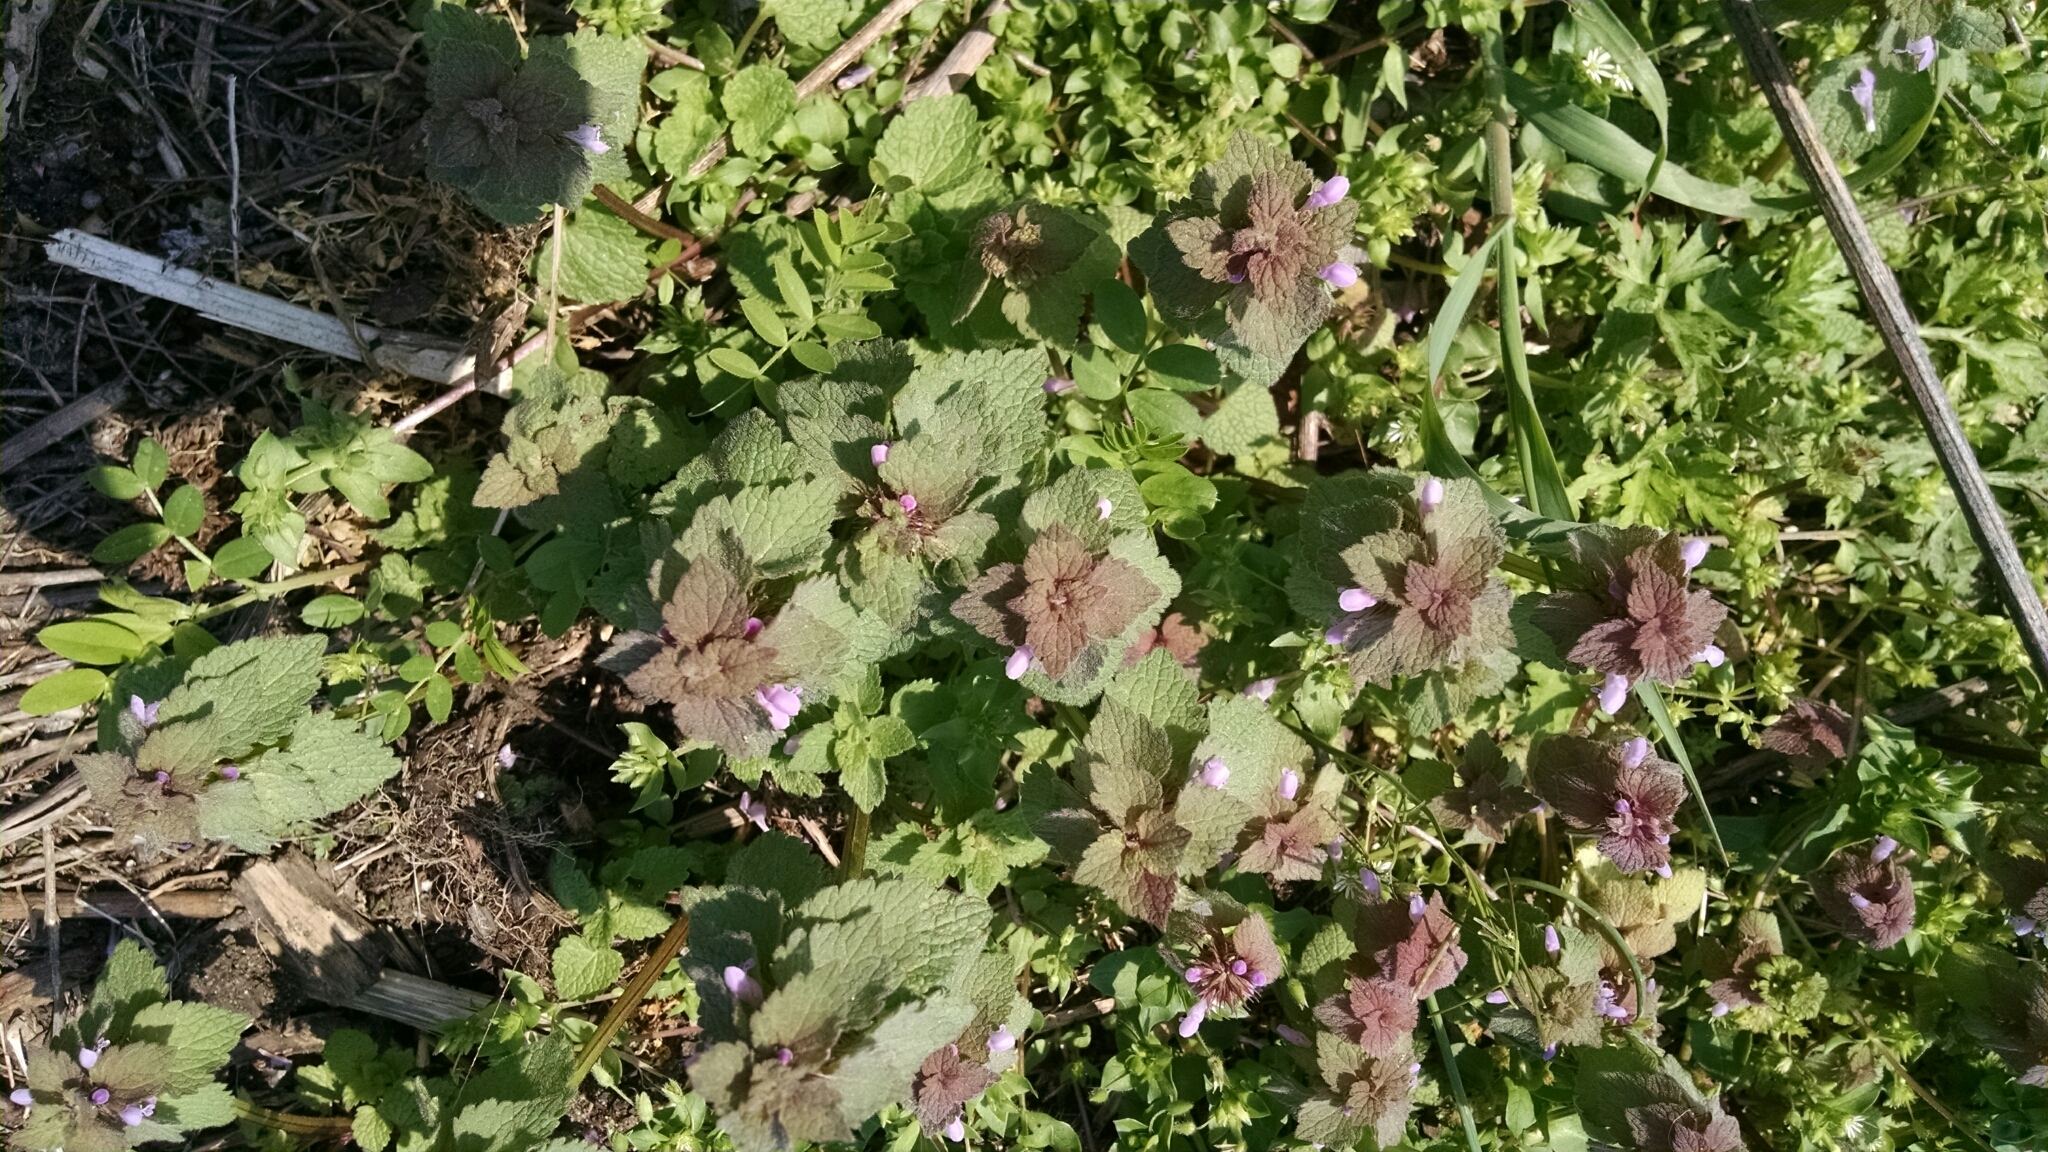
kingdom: Plantae
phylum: Tracheophyta
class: Magnoliopsida
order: Lamiales
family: Lamiaceae
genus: Lamium
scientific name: Lamium purpureum
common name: Red dead-nettle
